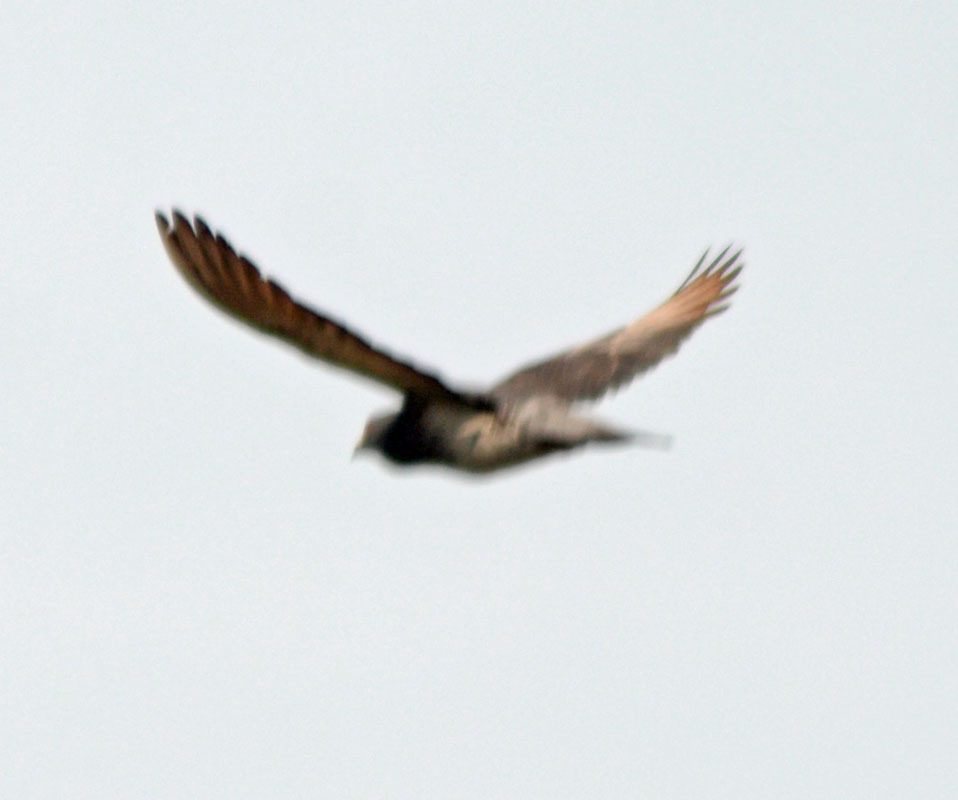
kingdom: Animalia
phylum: Chordata
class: Aves
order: Columbiformes
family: Columbidae
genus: Columba
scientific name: Columba livia
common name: Rock pigeon
